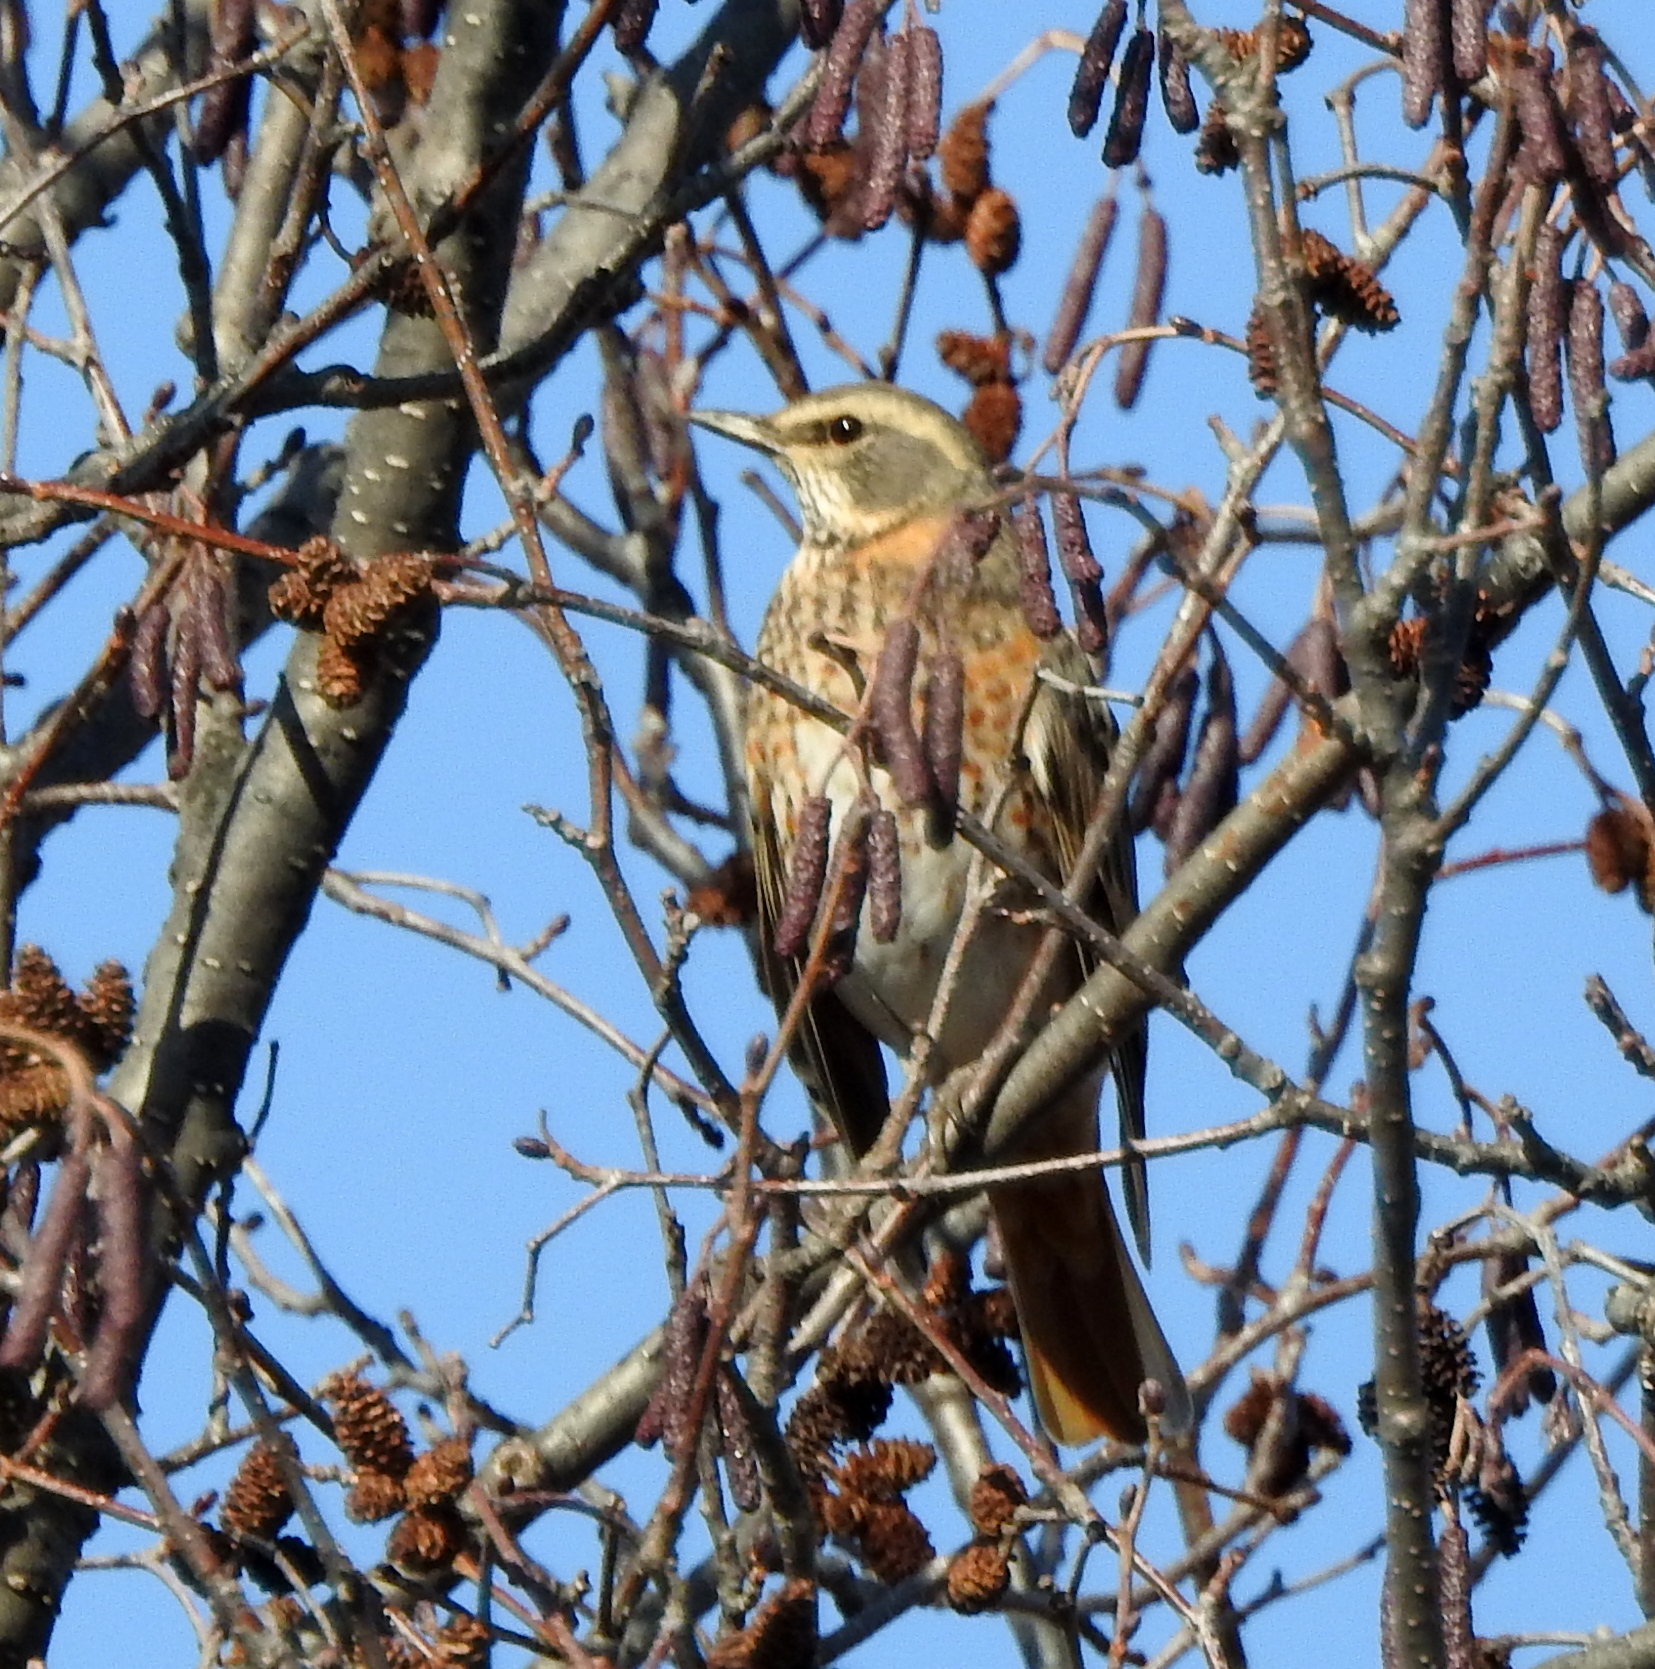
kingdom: Animalia
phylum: Chordata
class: Aves
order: Passeriformes
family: Turdidae
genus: Turdus
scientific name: Turdus naumanni
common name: Naumann's thrush
